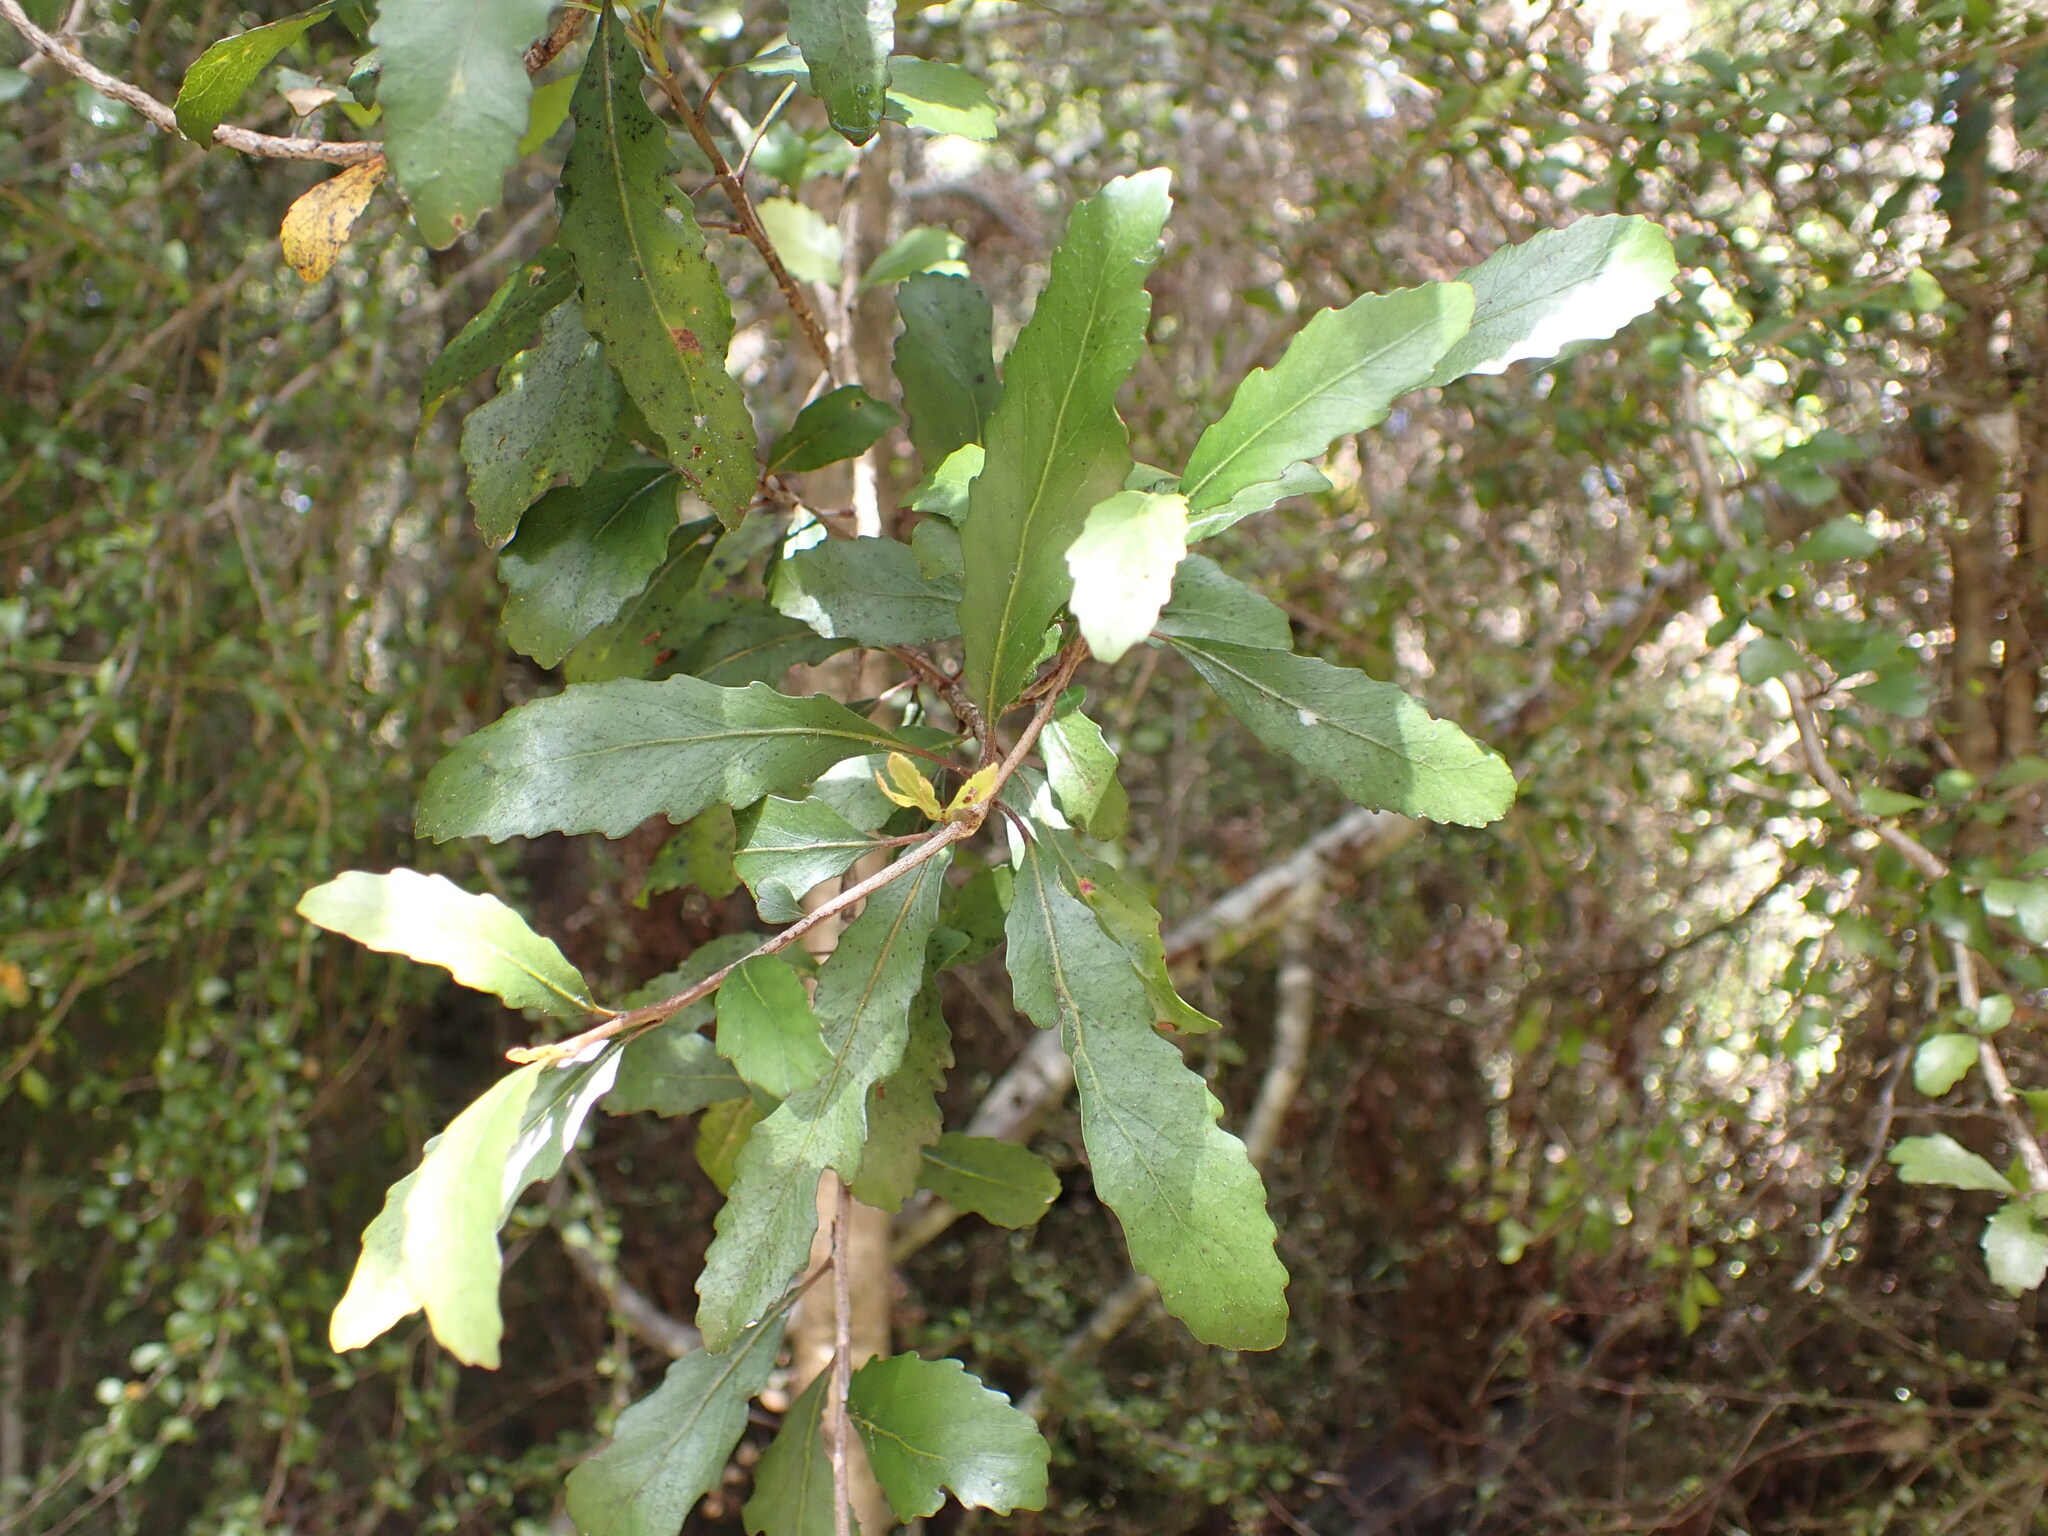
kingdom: Plantae
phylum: Tracheophyta
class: Magnoliopsida
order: Oxalidales
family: Elaeocarpaceae
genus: Elaeocarpus
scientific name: Elaeocarpus hookerianus
